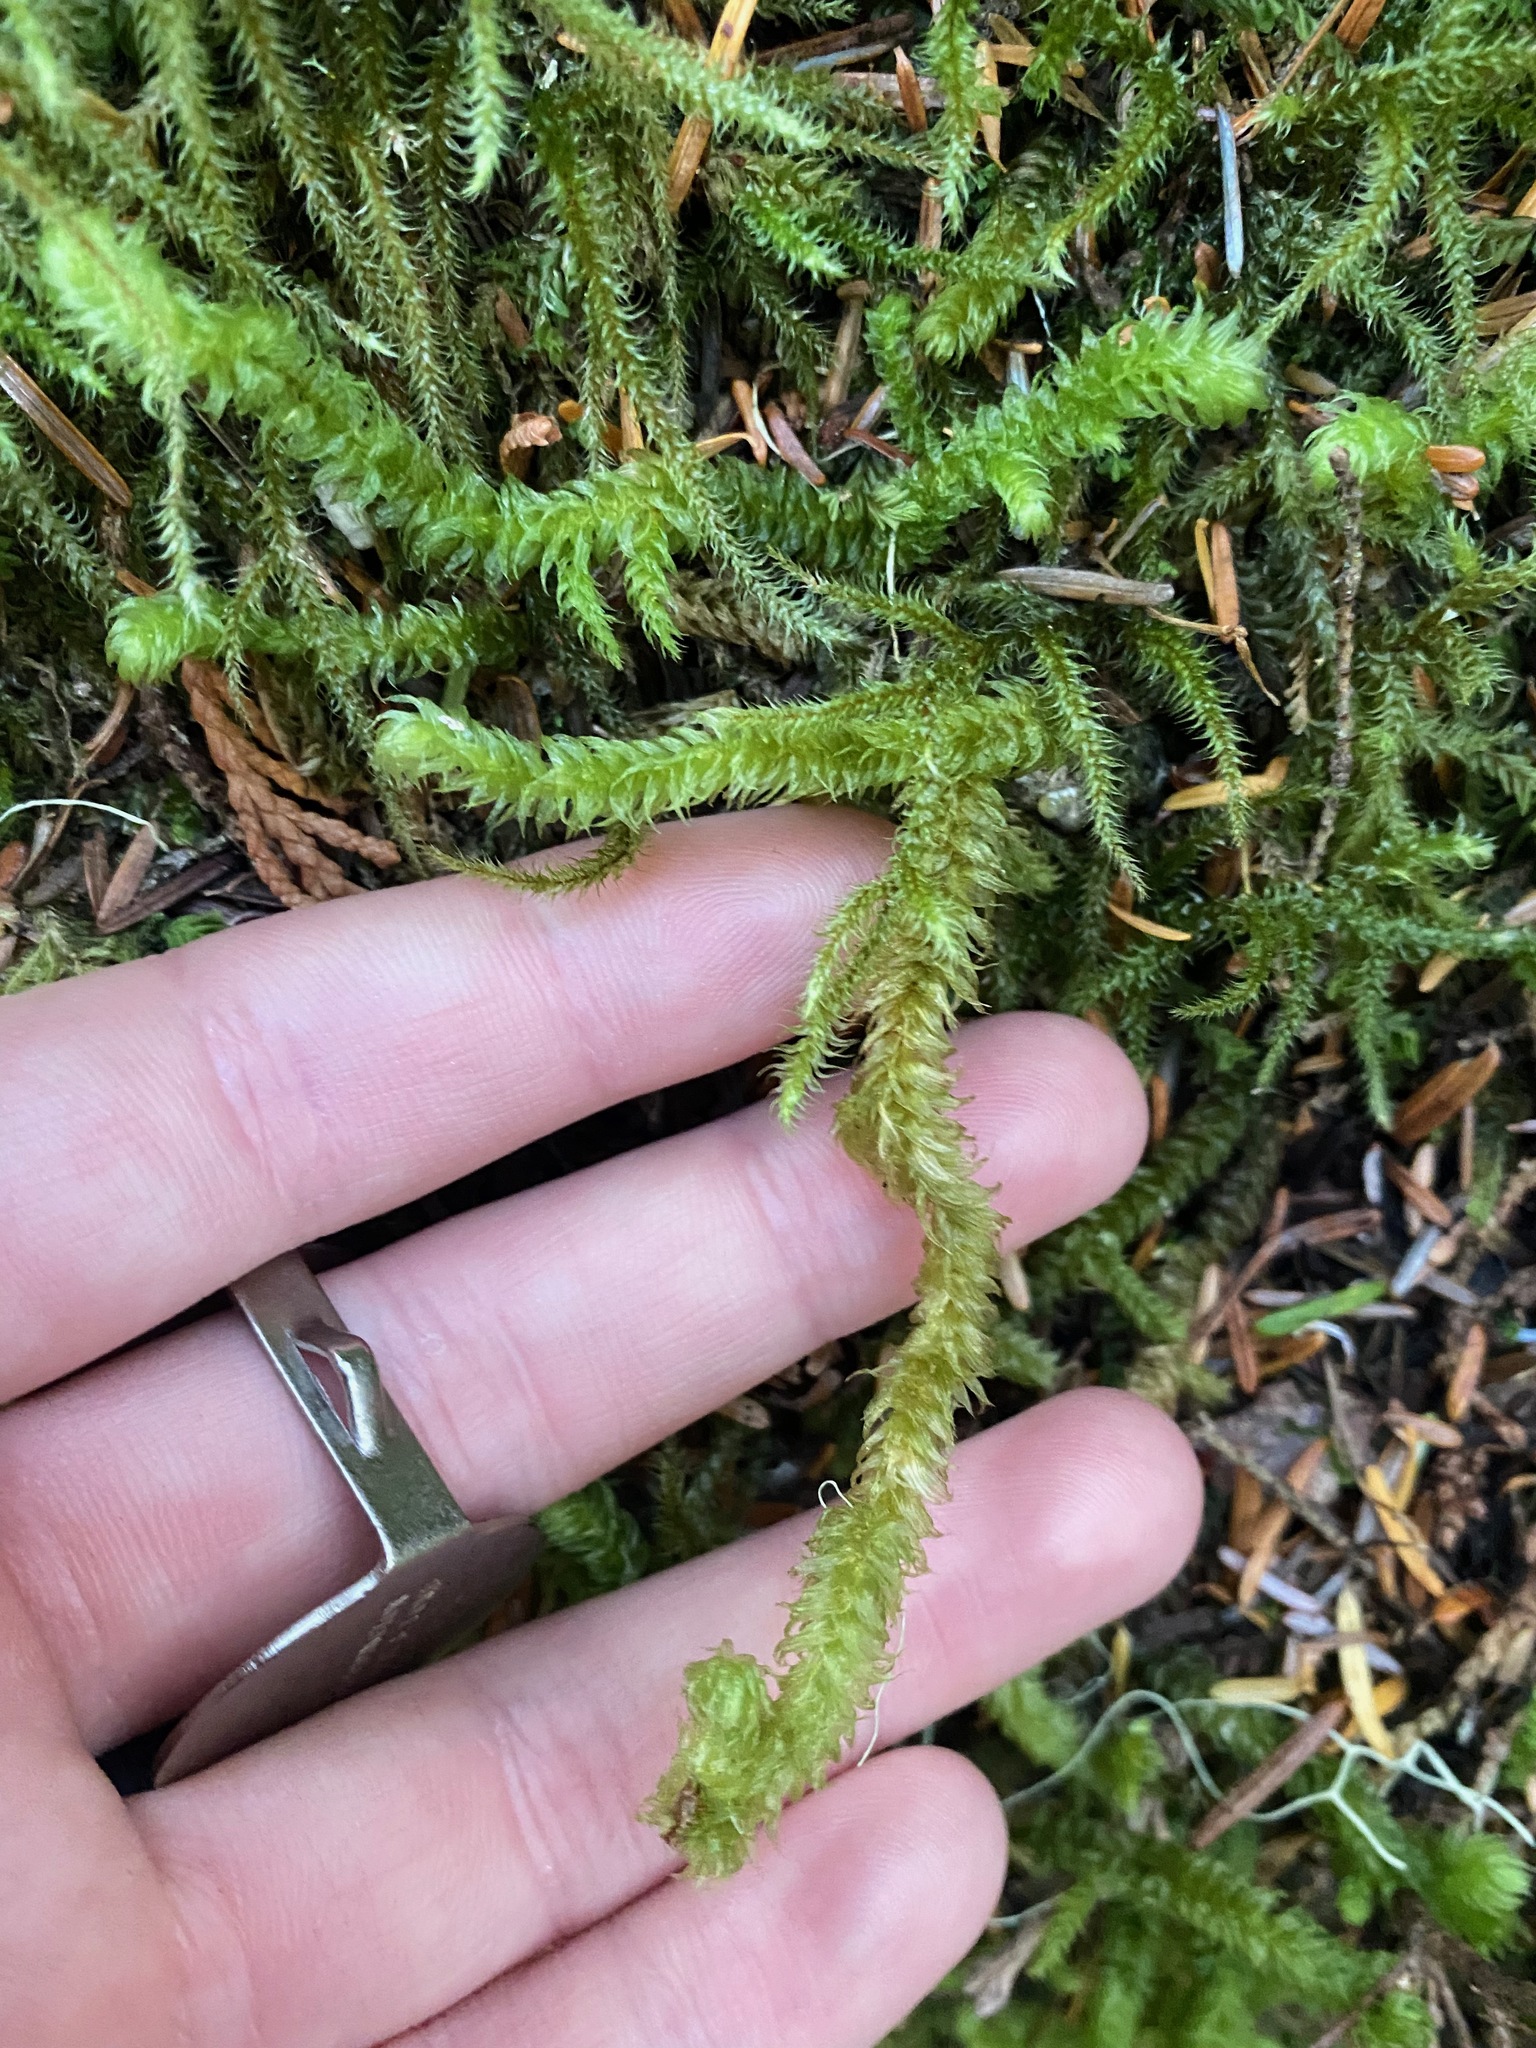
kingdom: Plantae
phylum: Bryophyta
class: Bryopsida
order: Hypnales
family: Hylocomiaceae
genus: Rhytidiopsis
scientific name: Rhytidiopsis robusta
